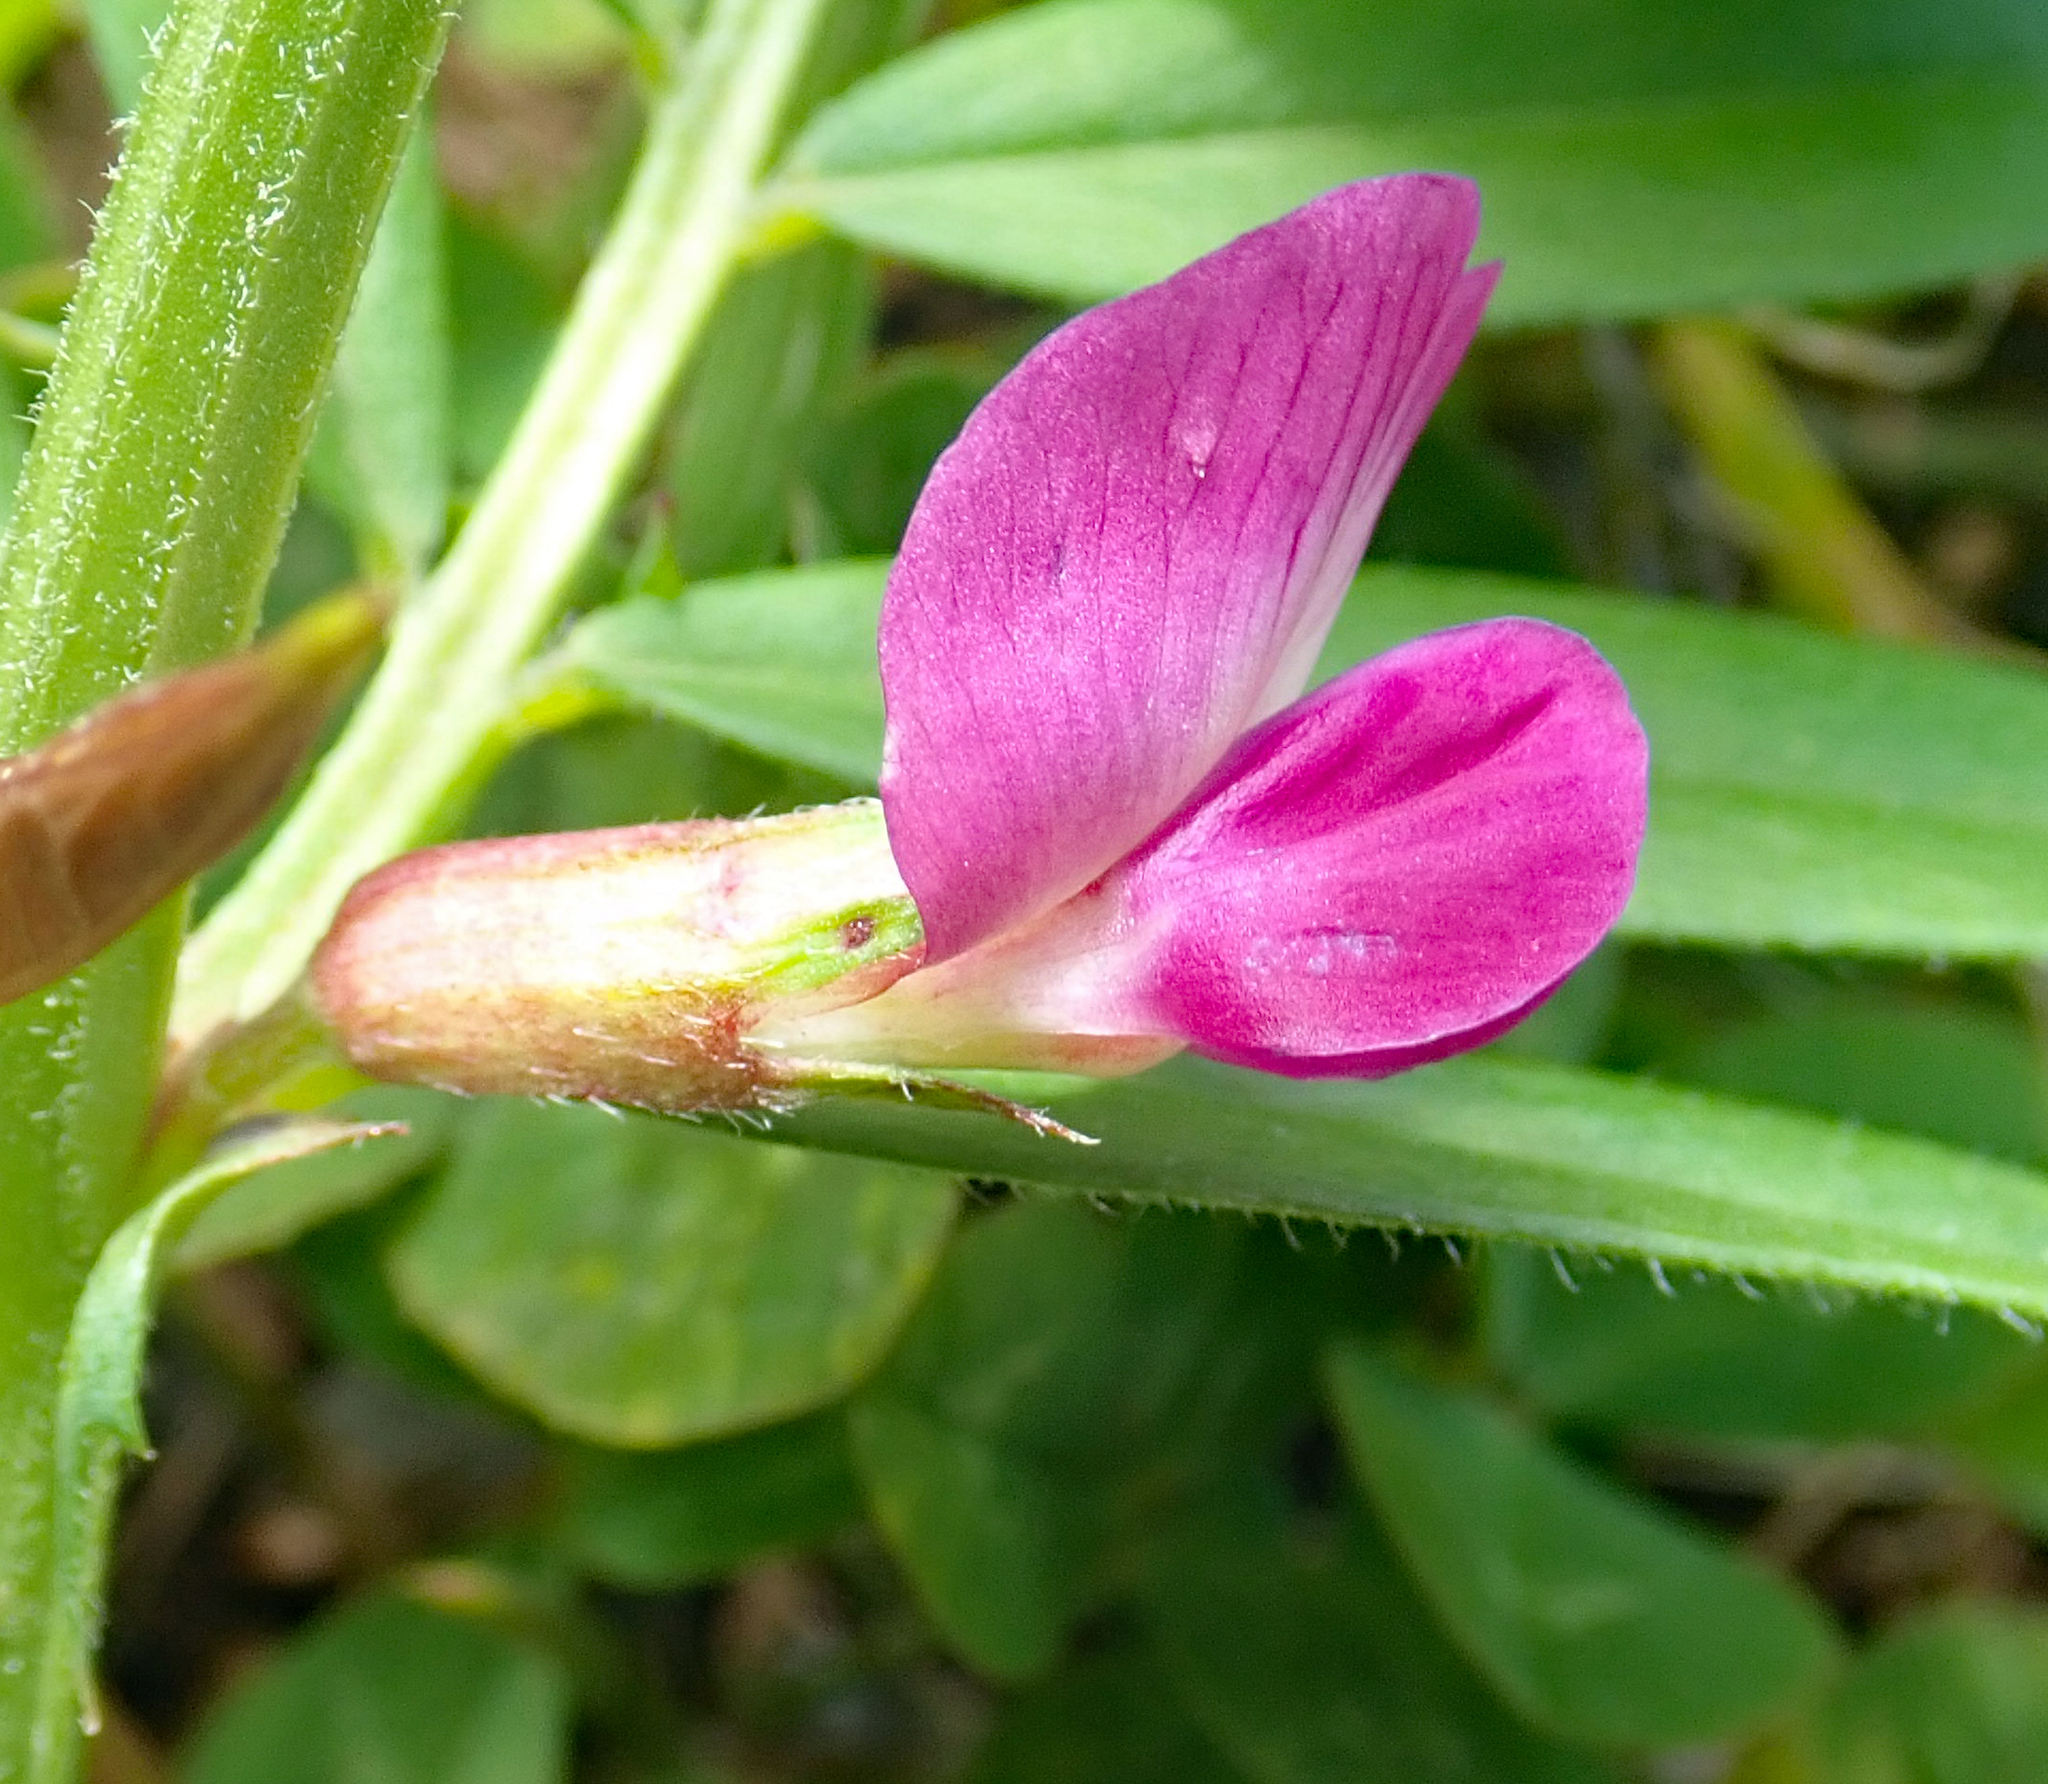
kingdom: Plantae
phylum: Tracheophyta
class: Magnoliopsida
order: Fabales
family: Fabaceae
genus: Vicia
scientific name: Vicia sativa
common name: Garden vetch
